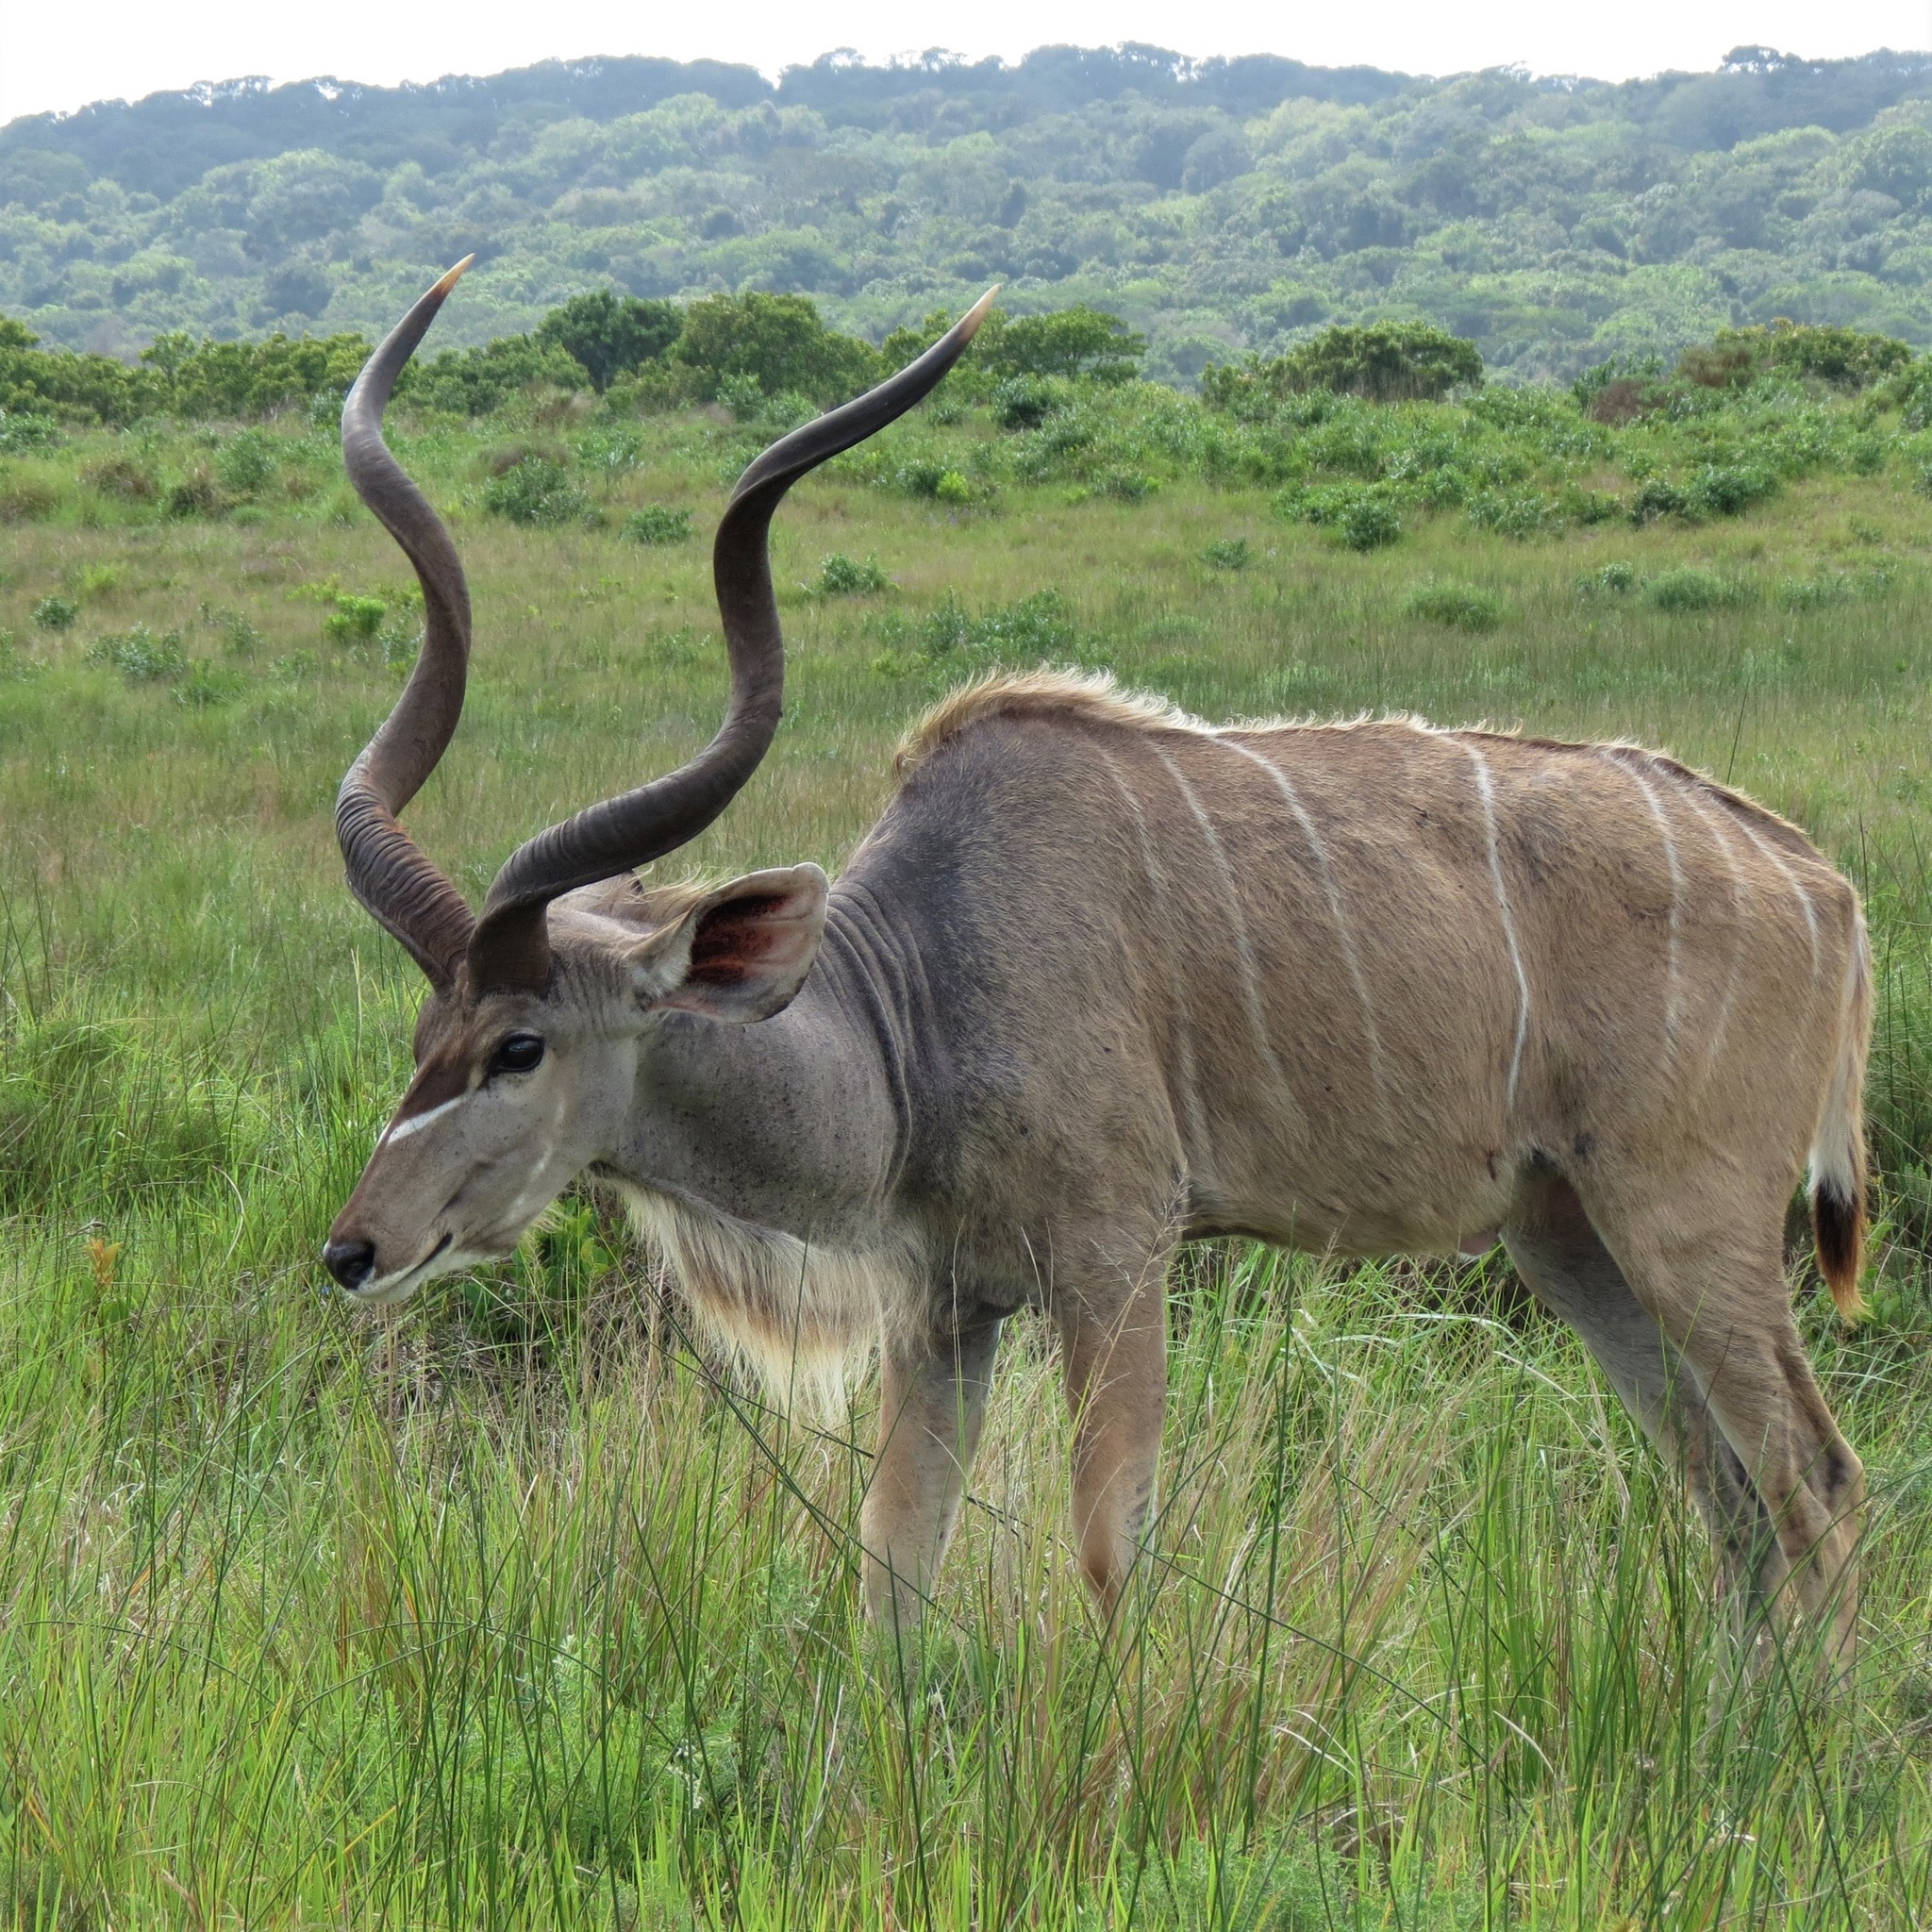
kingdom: Animalia
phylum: Chordata
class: Mammalia
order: Artiodactyla
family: Bovidae
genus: Tragelaphus
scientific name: Tragelaphus strepsiceros
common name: Greater kudu
